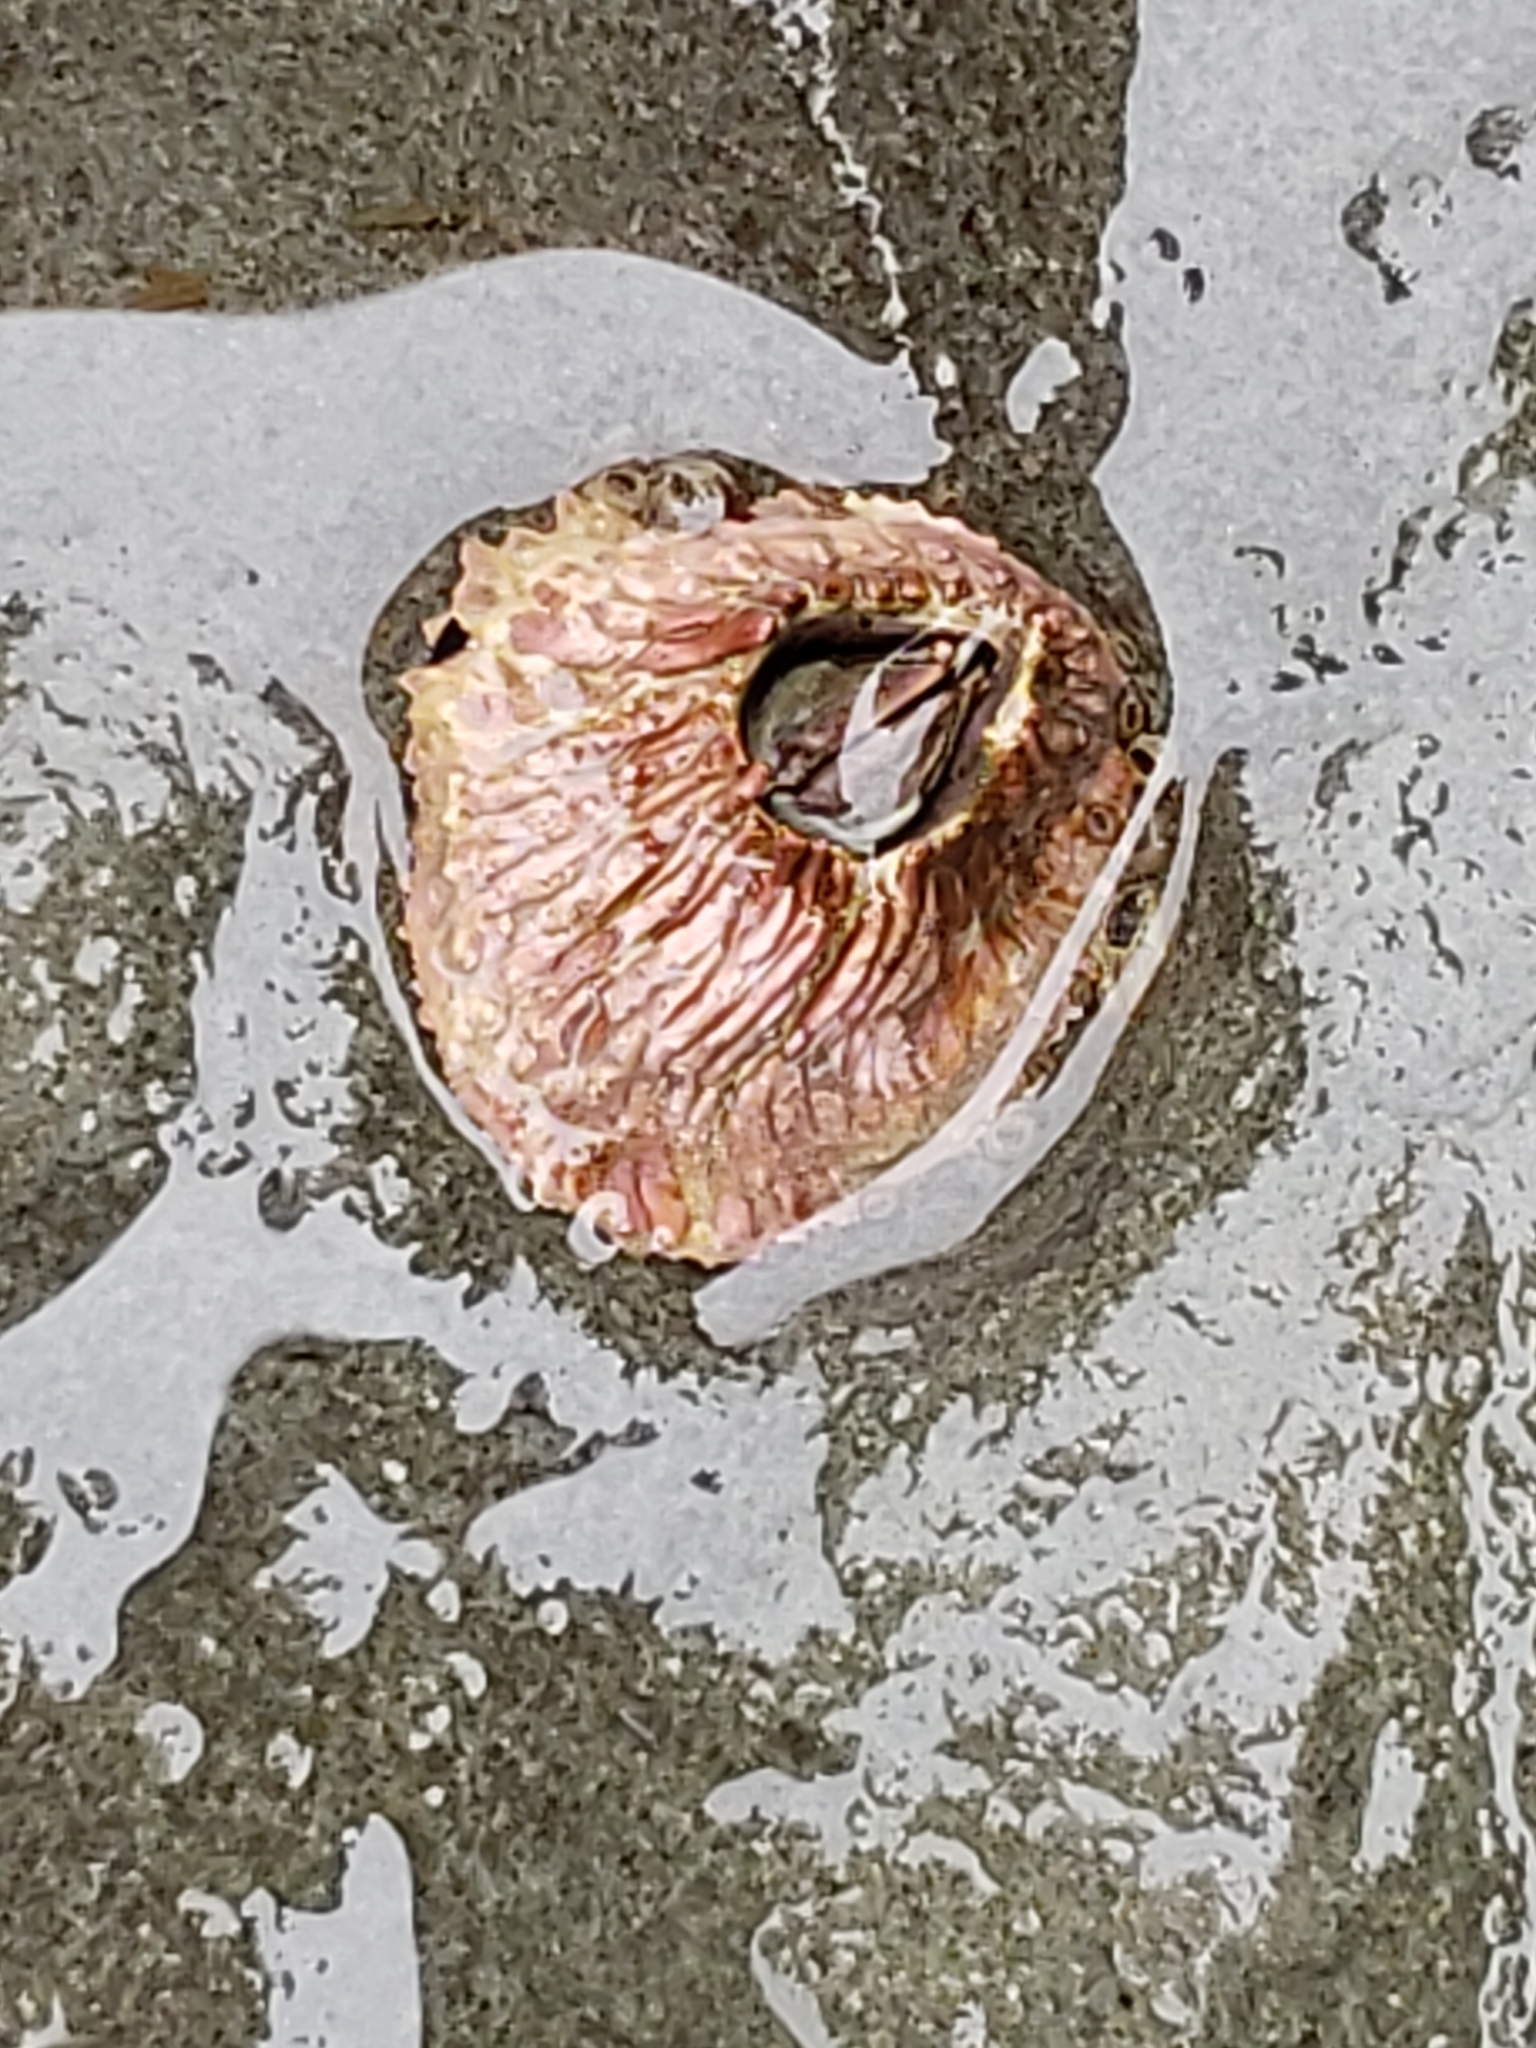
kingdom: Animalia
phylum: Arthropoda
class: Maxillopoda
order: Sessilia
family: Tetraclitidae
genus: Tetraclita
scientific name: Tetraclita rubescens
